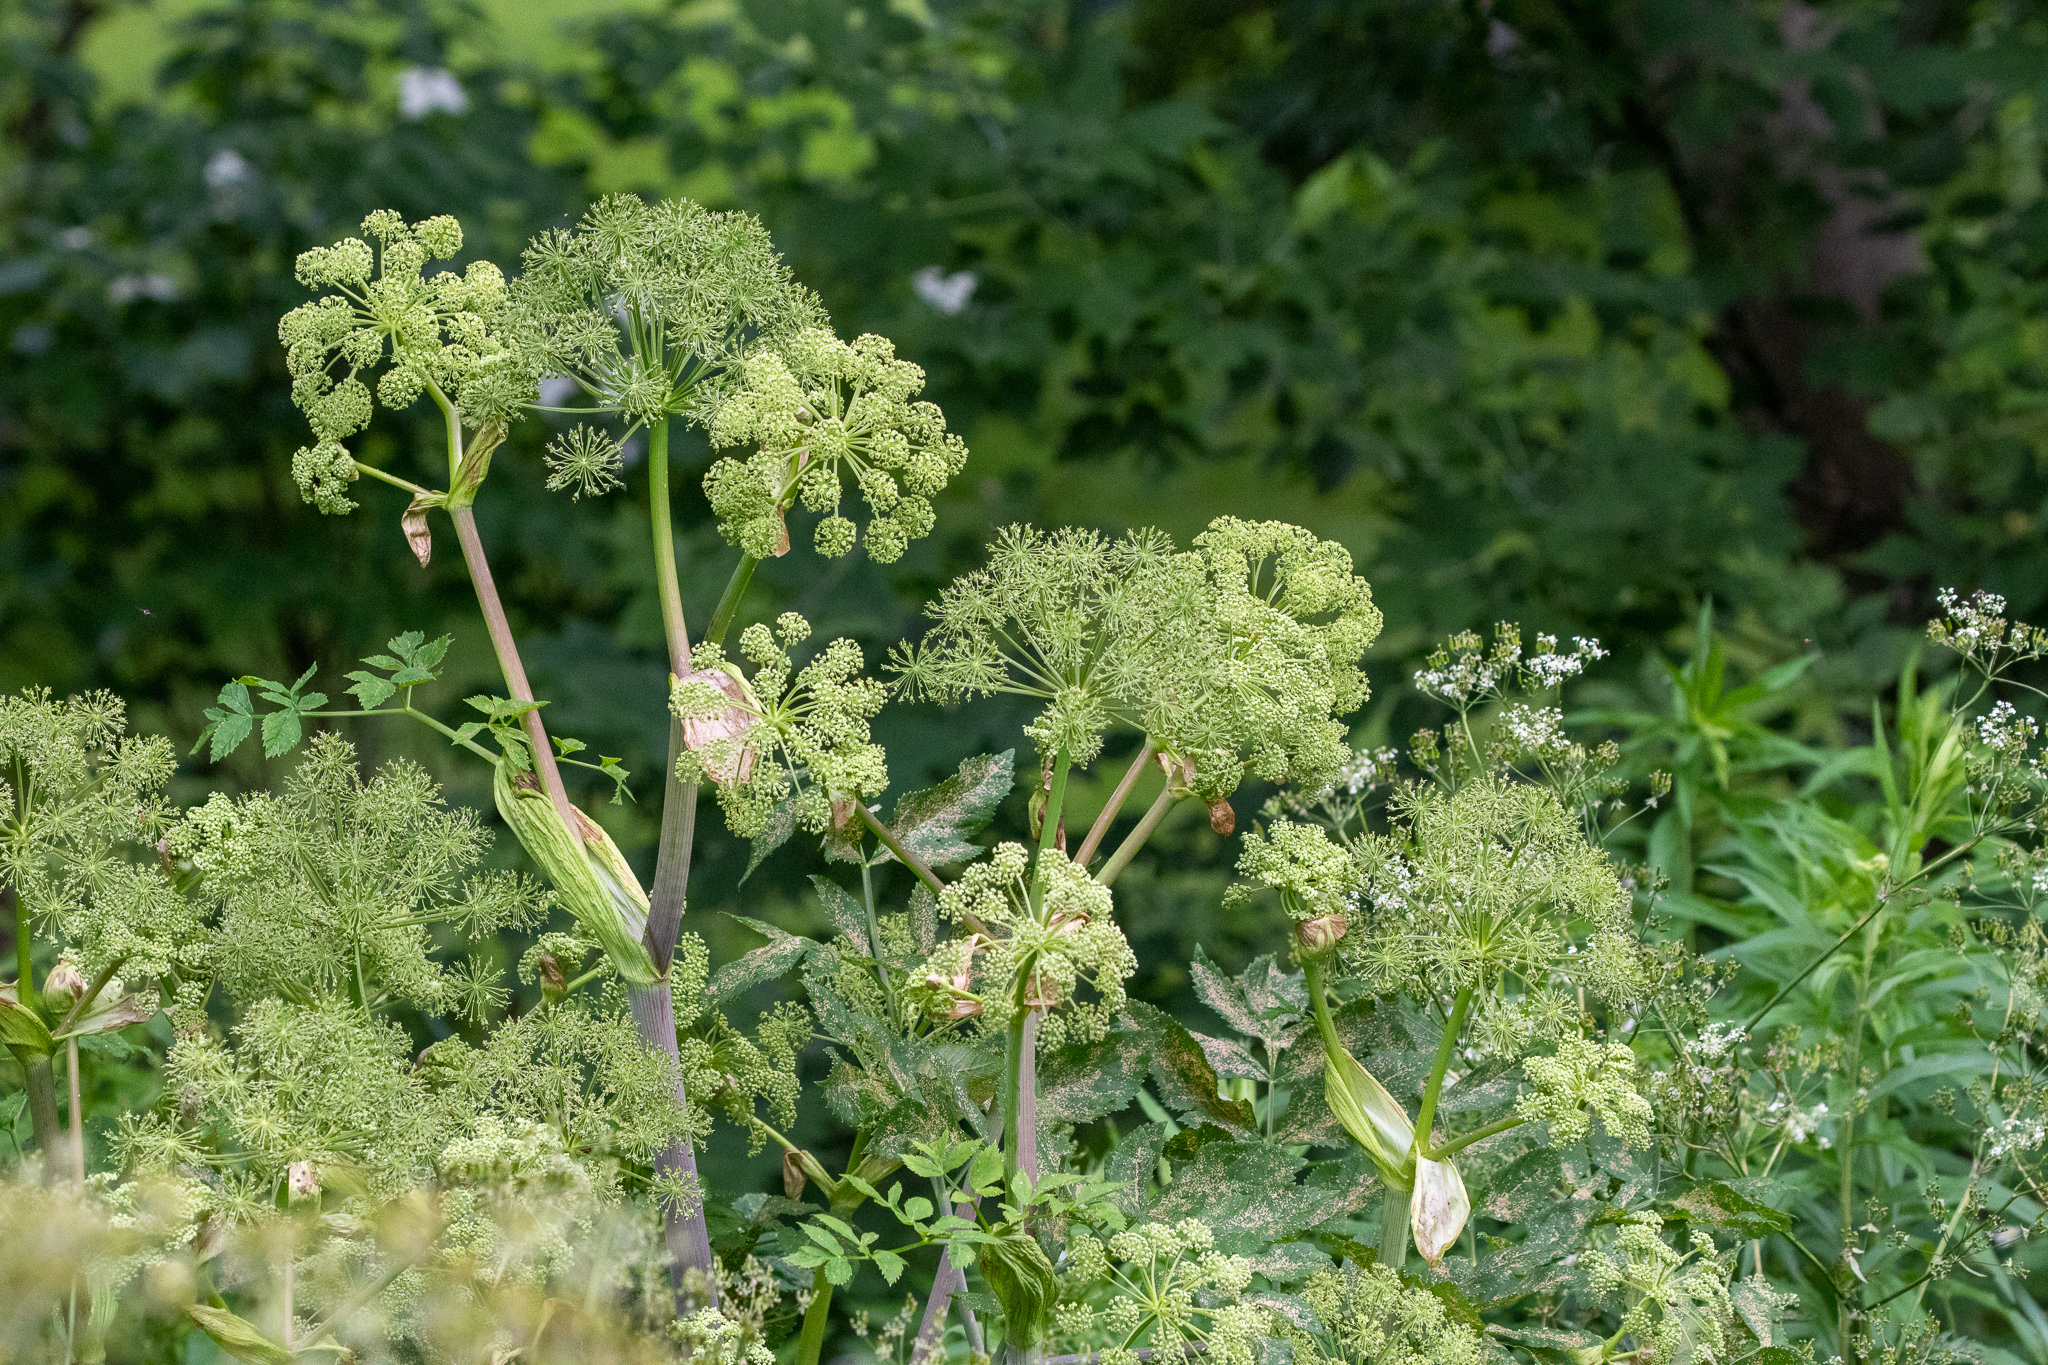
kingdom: Plantae
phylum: Tracheophyta
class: Magnoliopsida
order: Apiales
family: Apiaceae
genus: Angelica
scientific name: Angelica atropurpurea
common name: Great angelica
